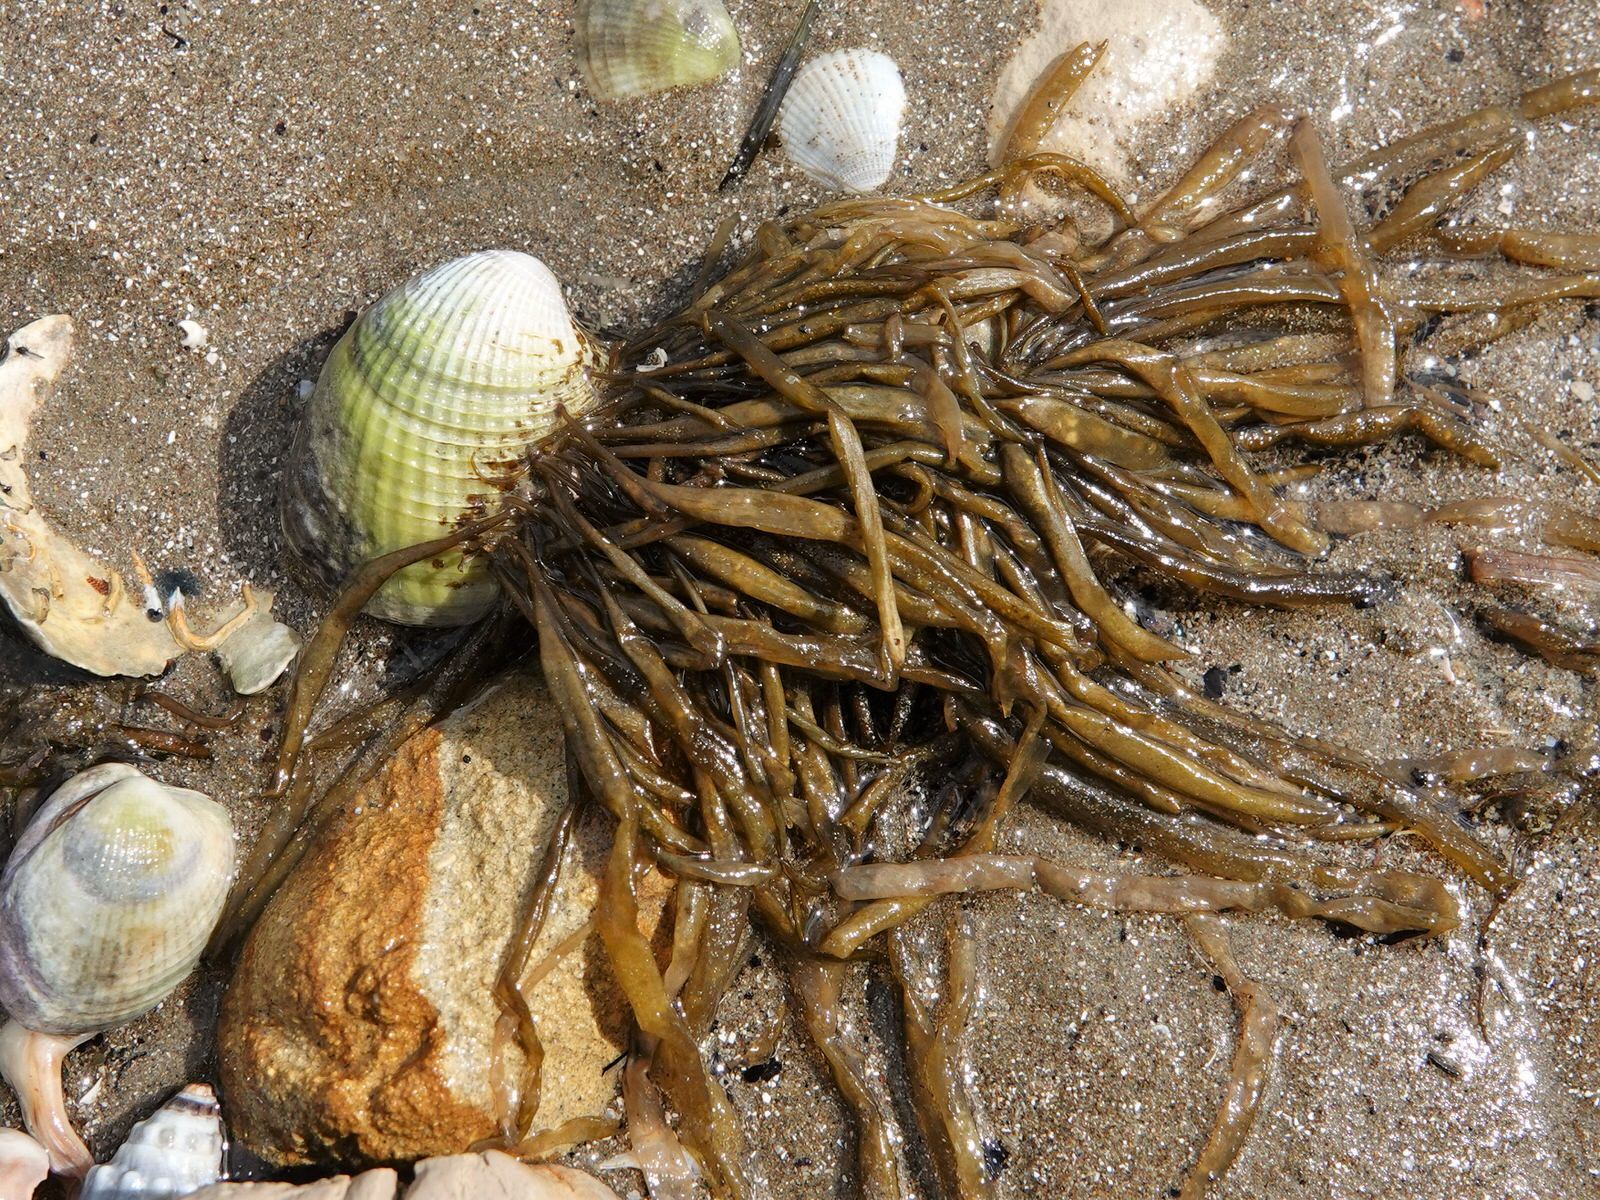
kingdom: Chromista
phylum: Ochrophyta
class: Phaeophyceae
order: Scytosiphonales
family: Scytosiphonaceae
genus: Scytosiphon
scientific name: Scytosiphon lomentaria
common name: Beanweed
